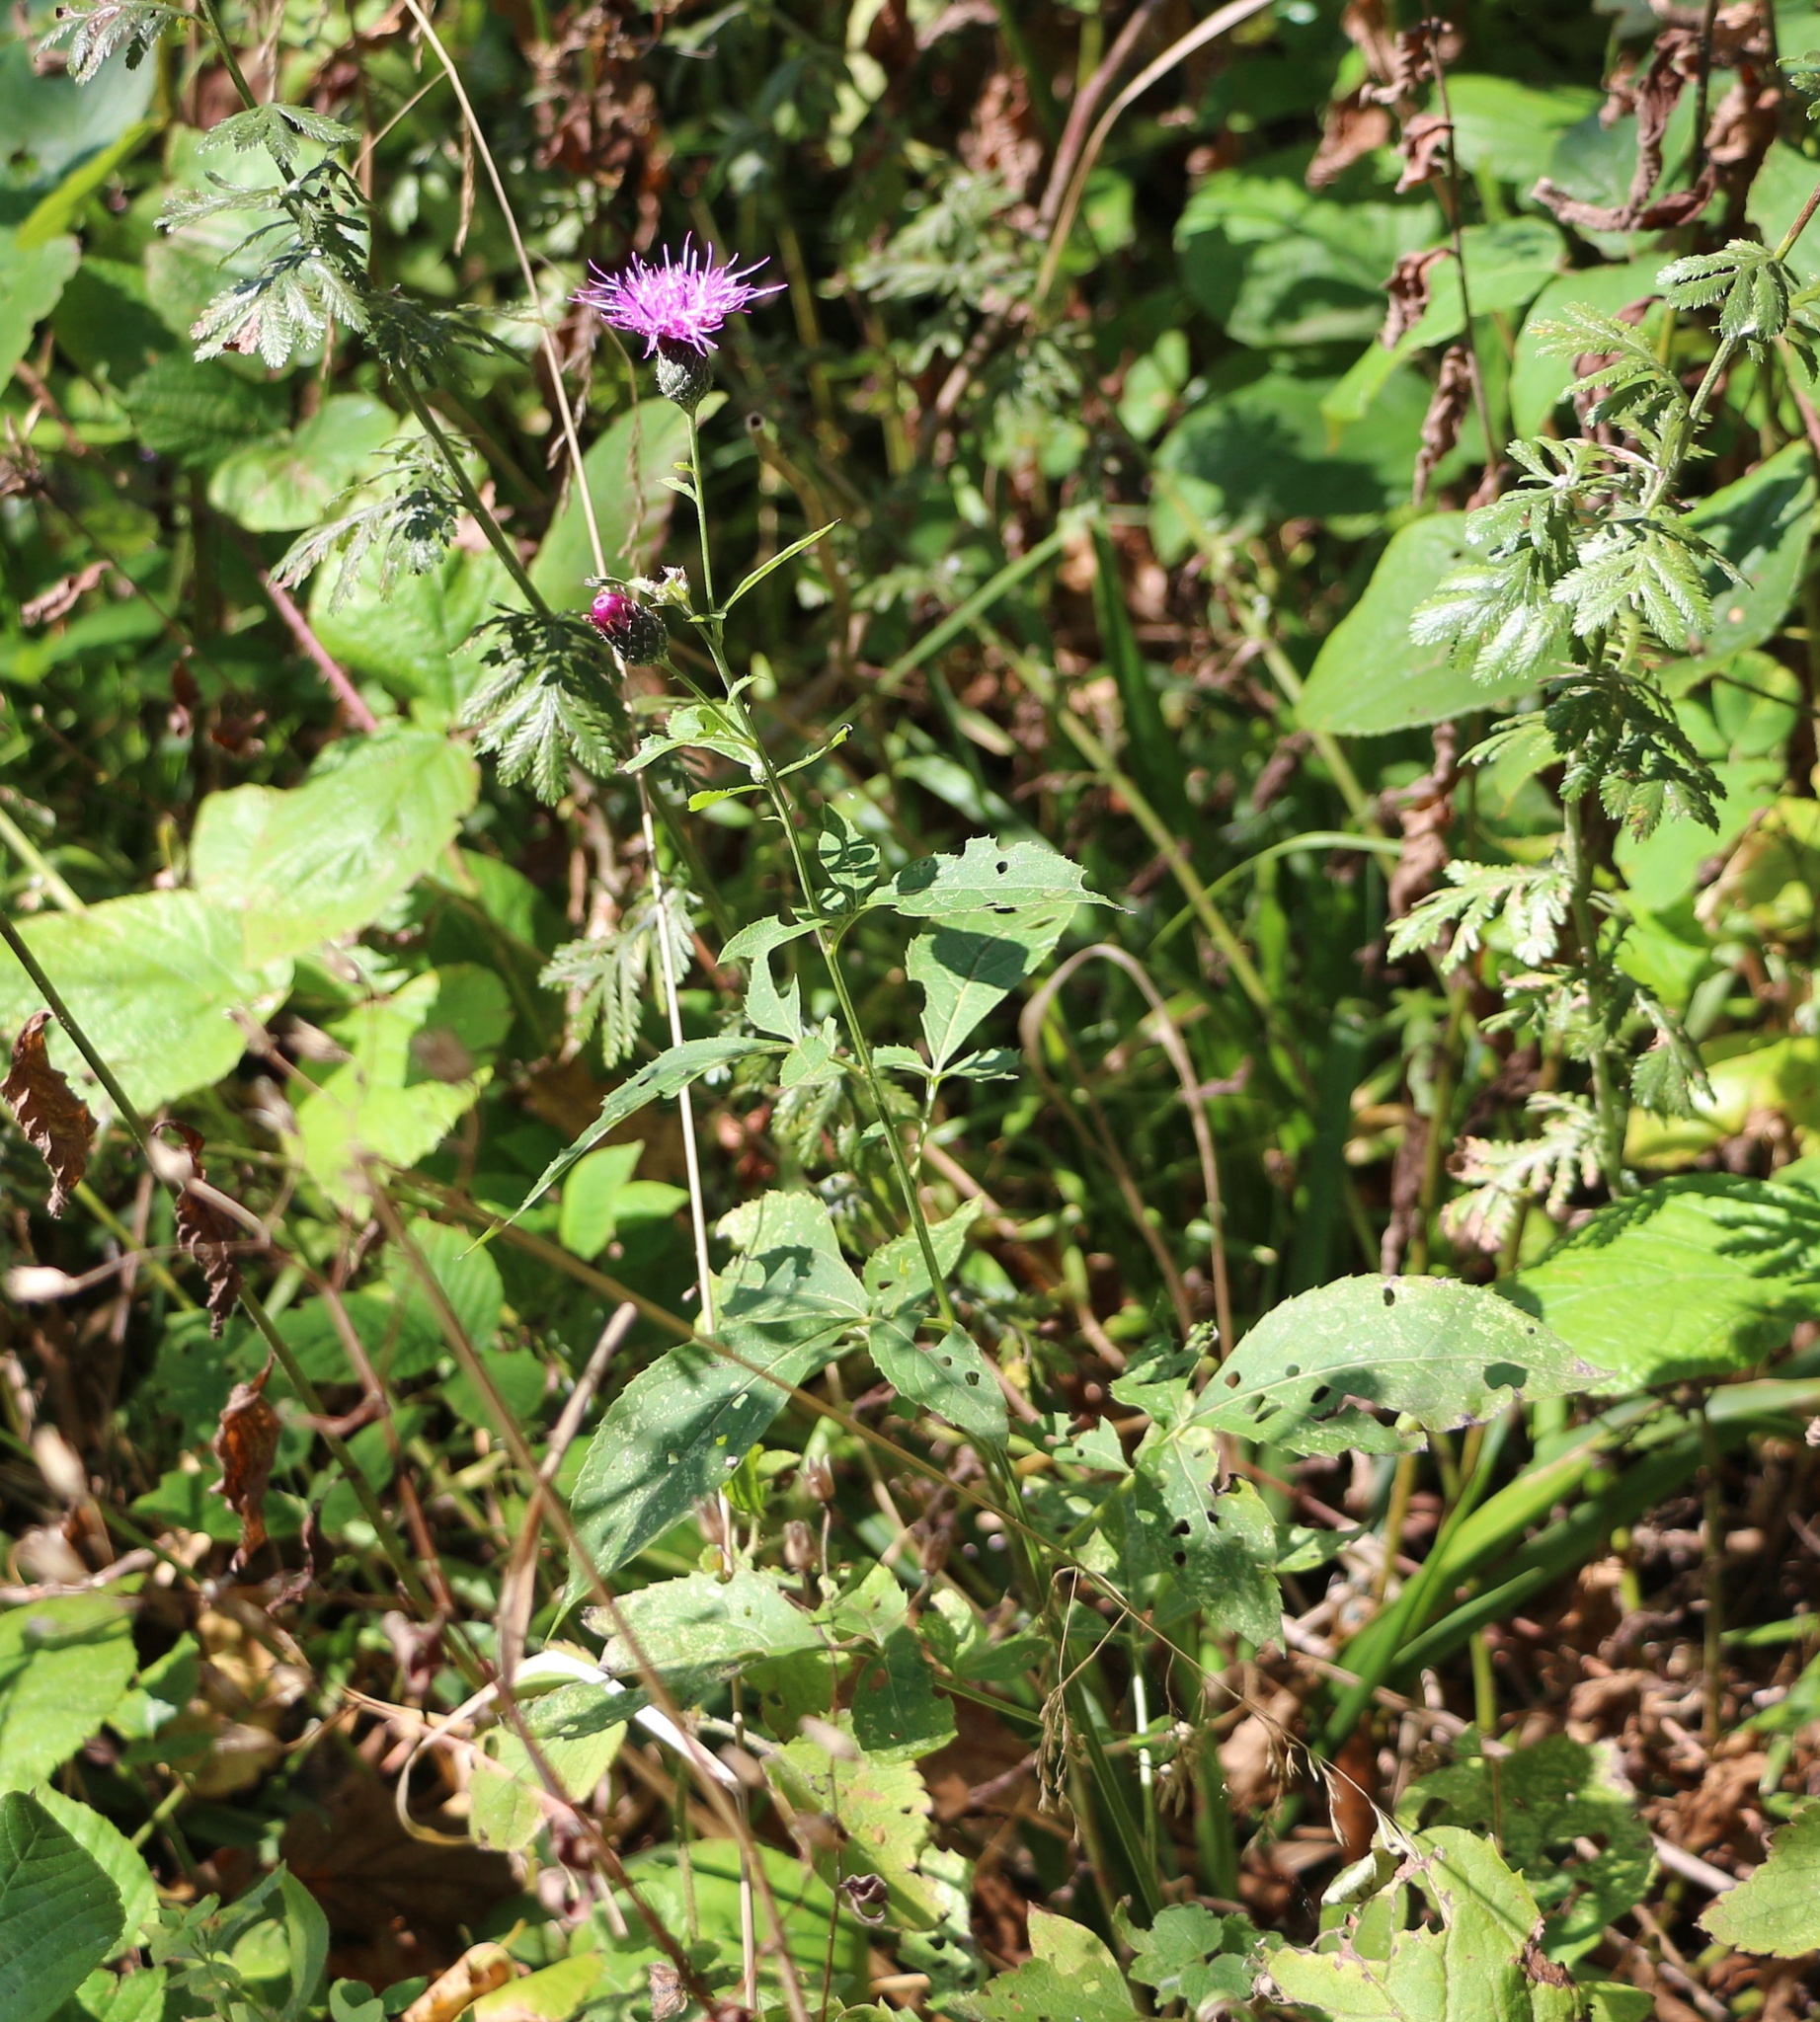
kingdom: Plantae
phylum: Tracheophyta
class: Magnoliopsida
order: Asterales
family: Asteraceae
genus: Klasea
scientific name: Klasea quinquefolia
